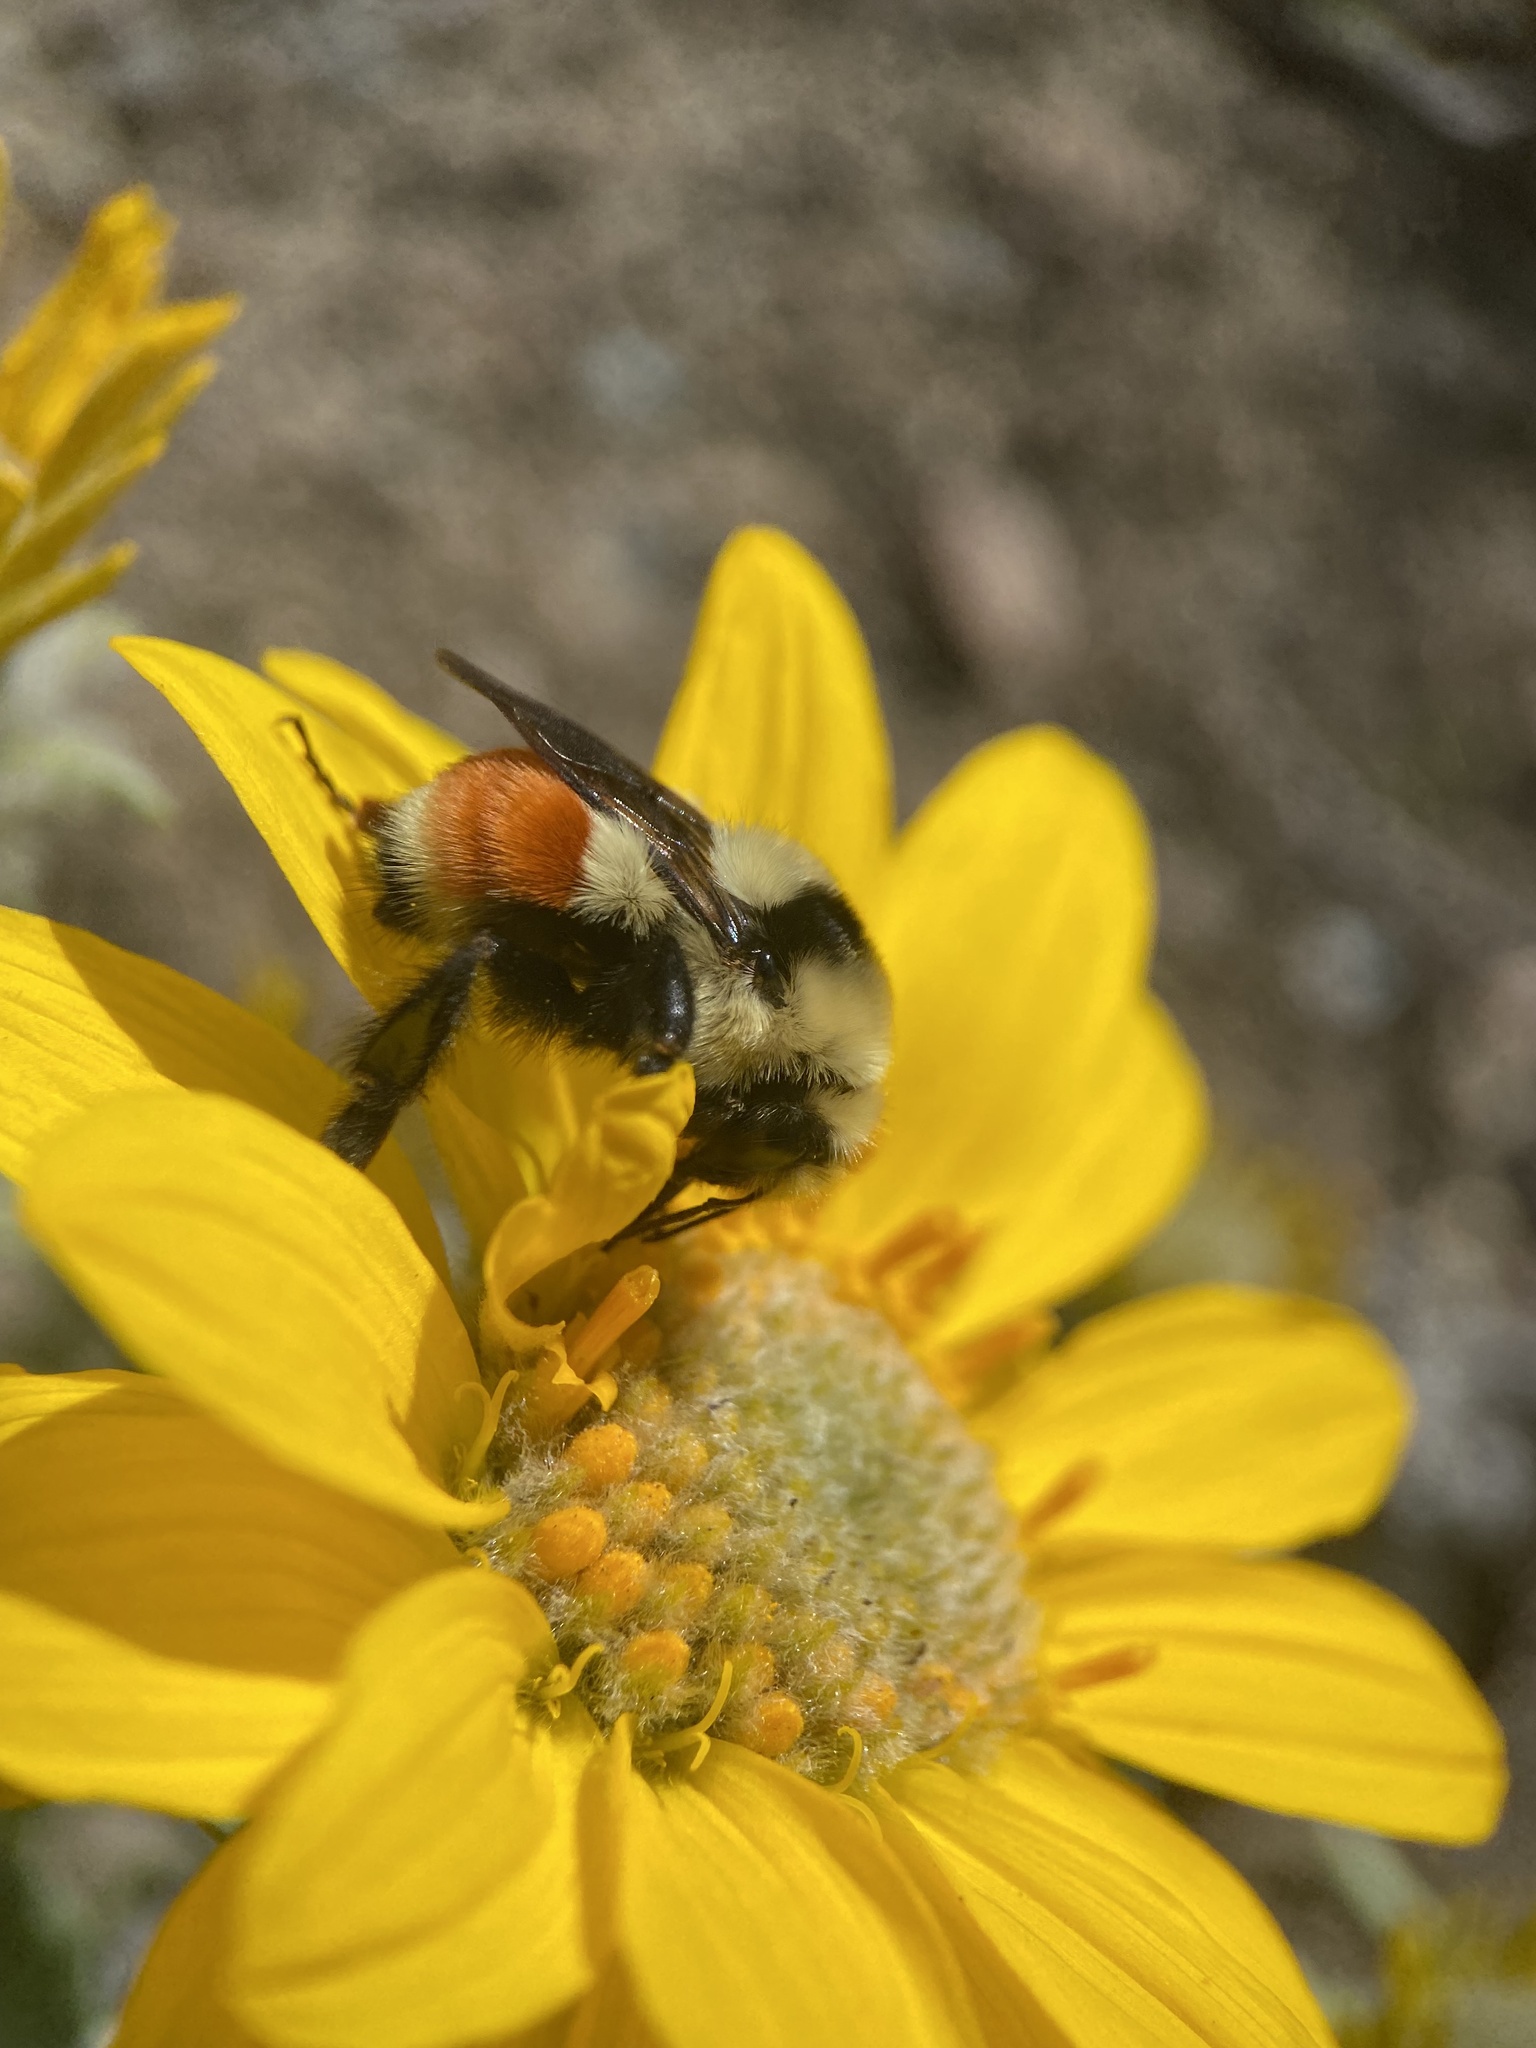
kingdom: Animalia
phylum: Arthropoda
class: Insecta
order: Hymenoptera
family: Apidae
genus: Bombus
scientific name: Bombus huntii
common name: Hunt bumble bee
